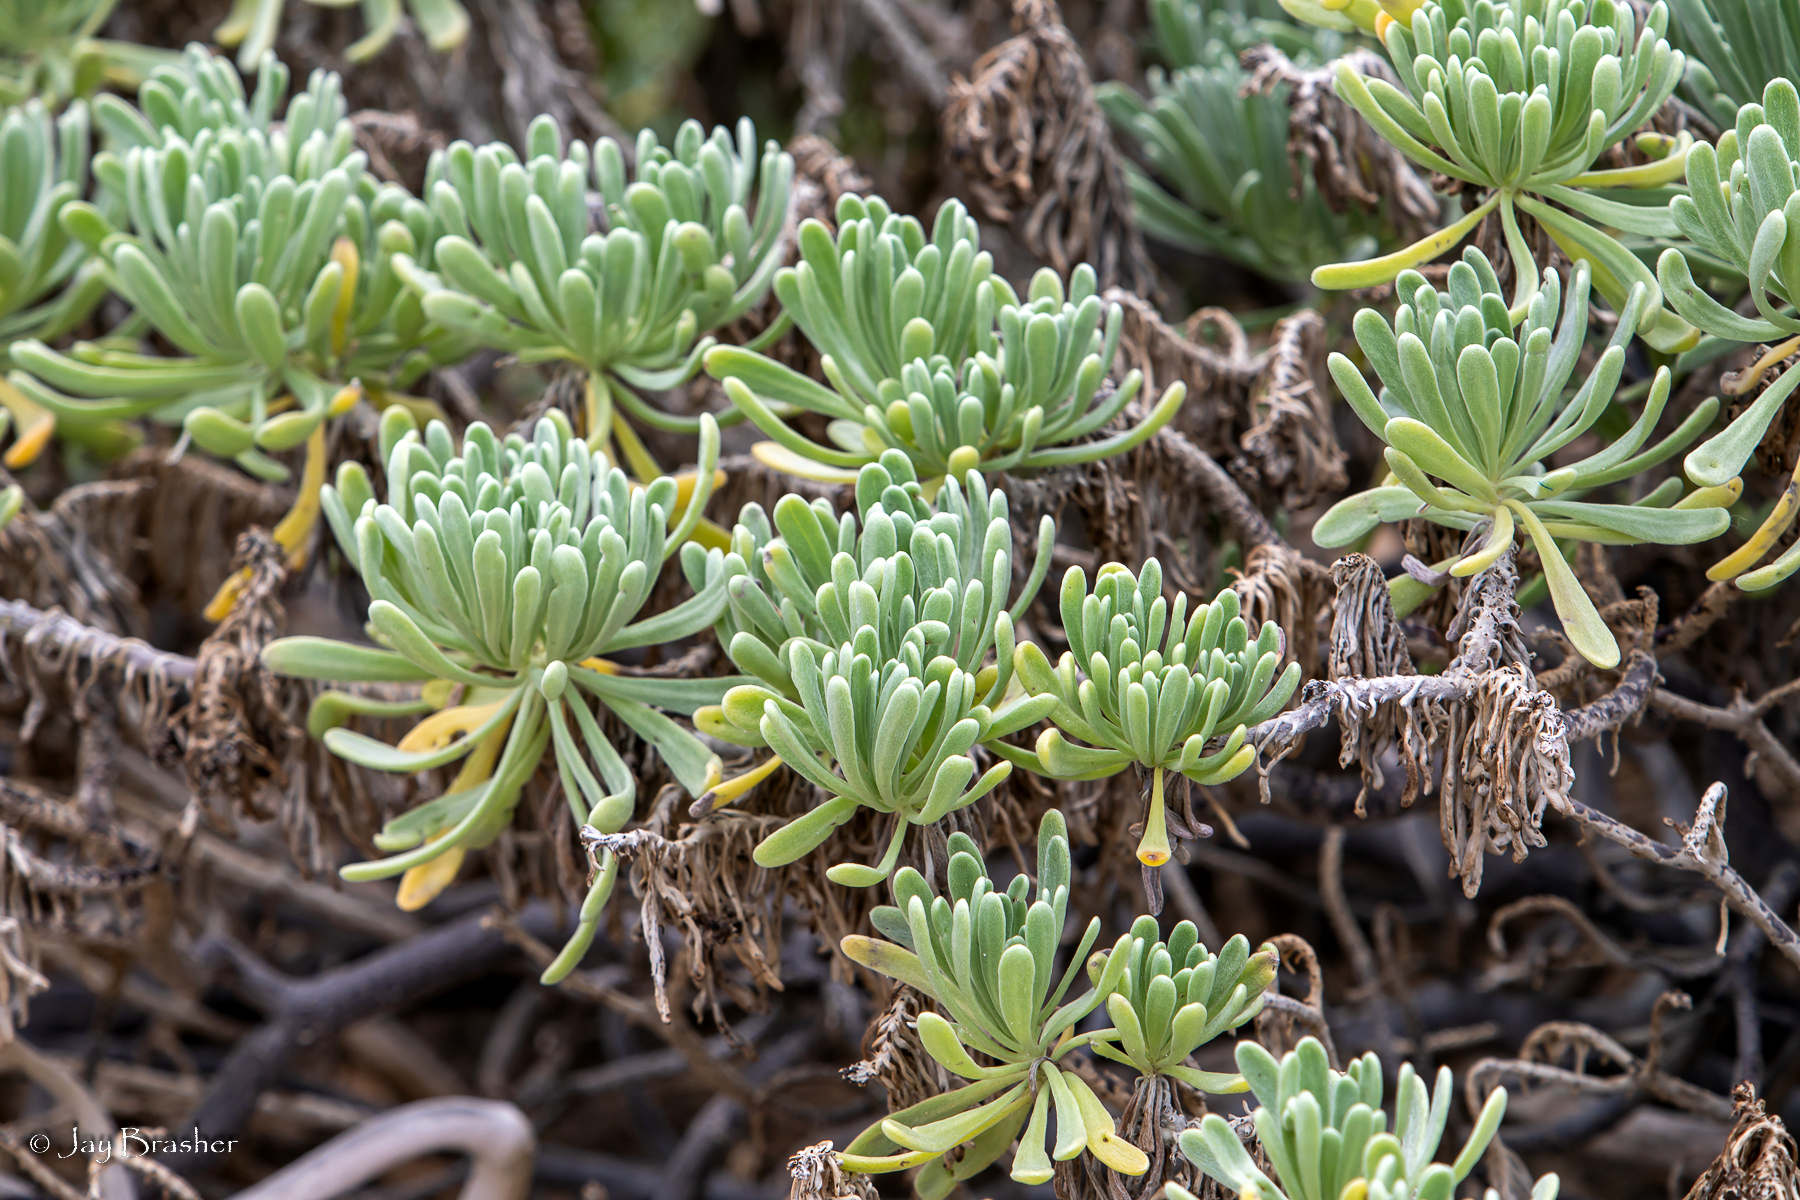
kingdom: Plantae
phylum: Tracheophyta
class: Magnoliopsida
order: Boraginales
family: Heliotropiaceae
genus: Tournefortia
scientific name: Tournefortia gnaphalodes
